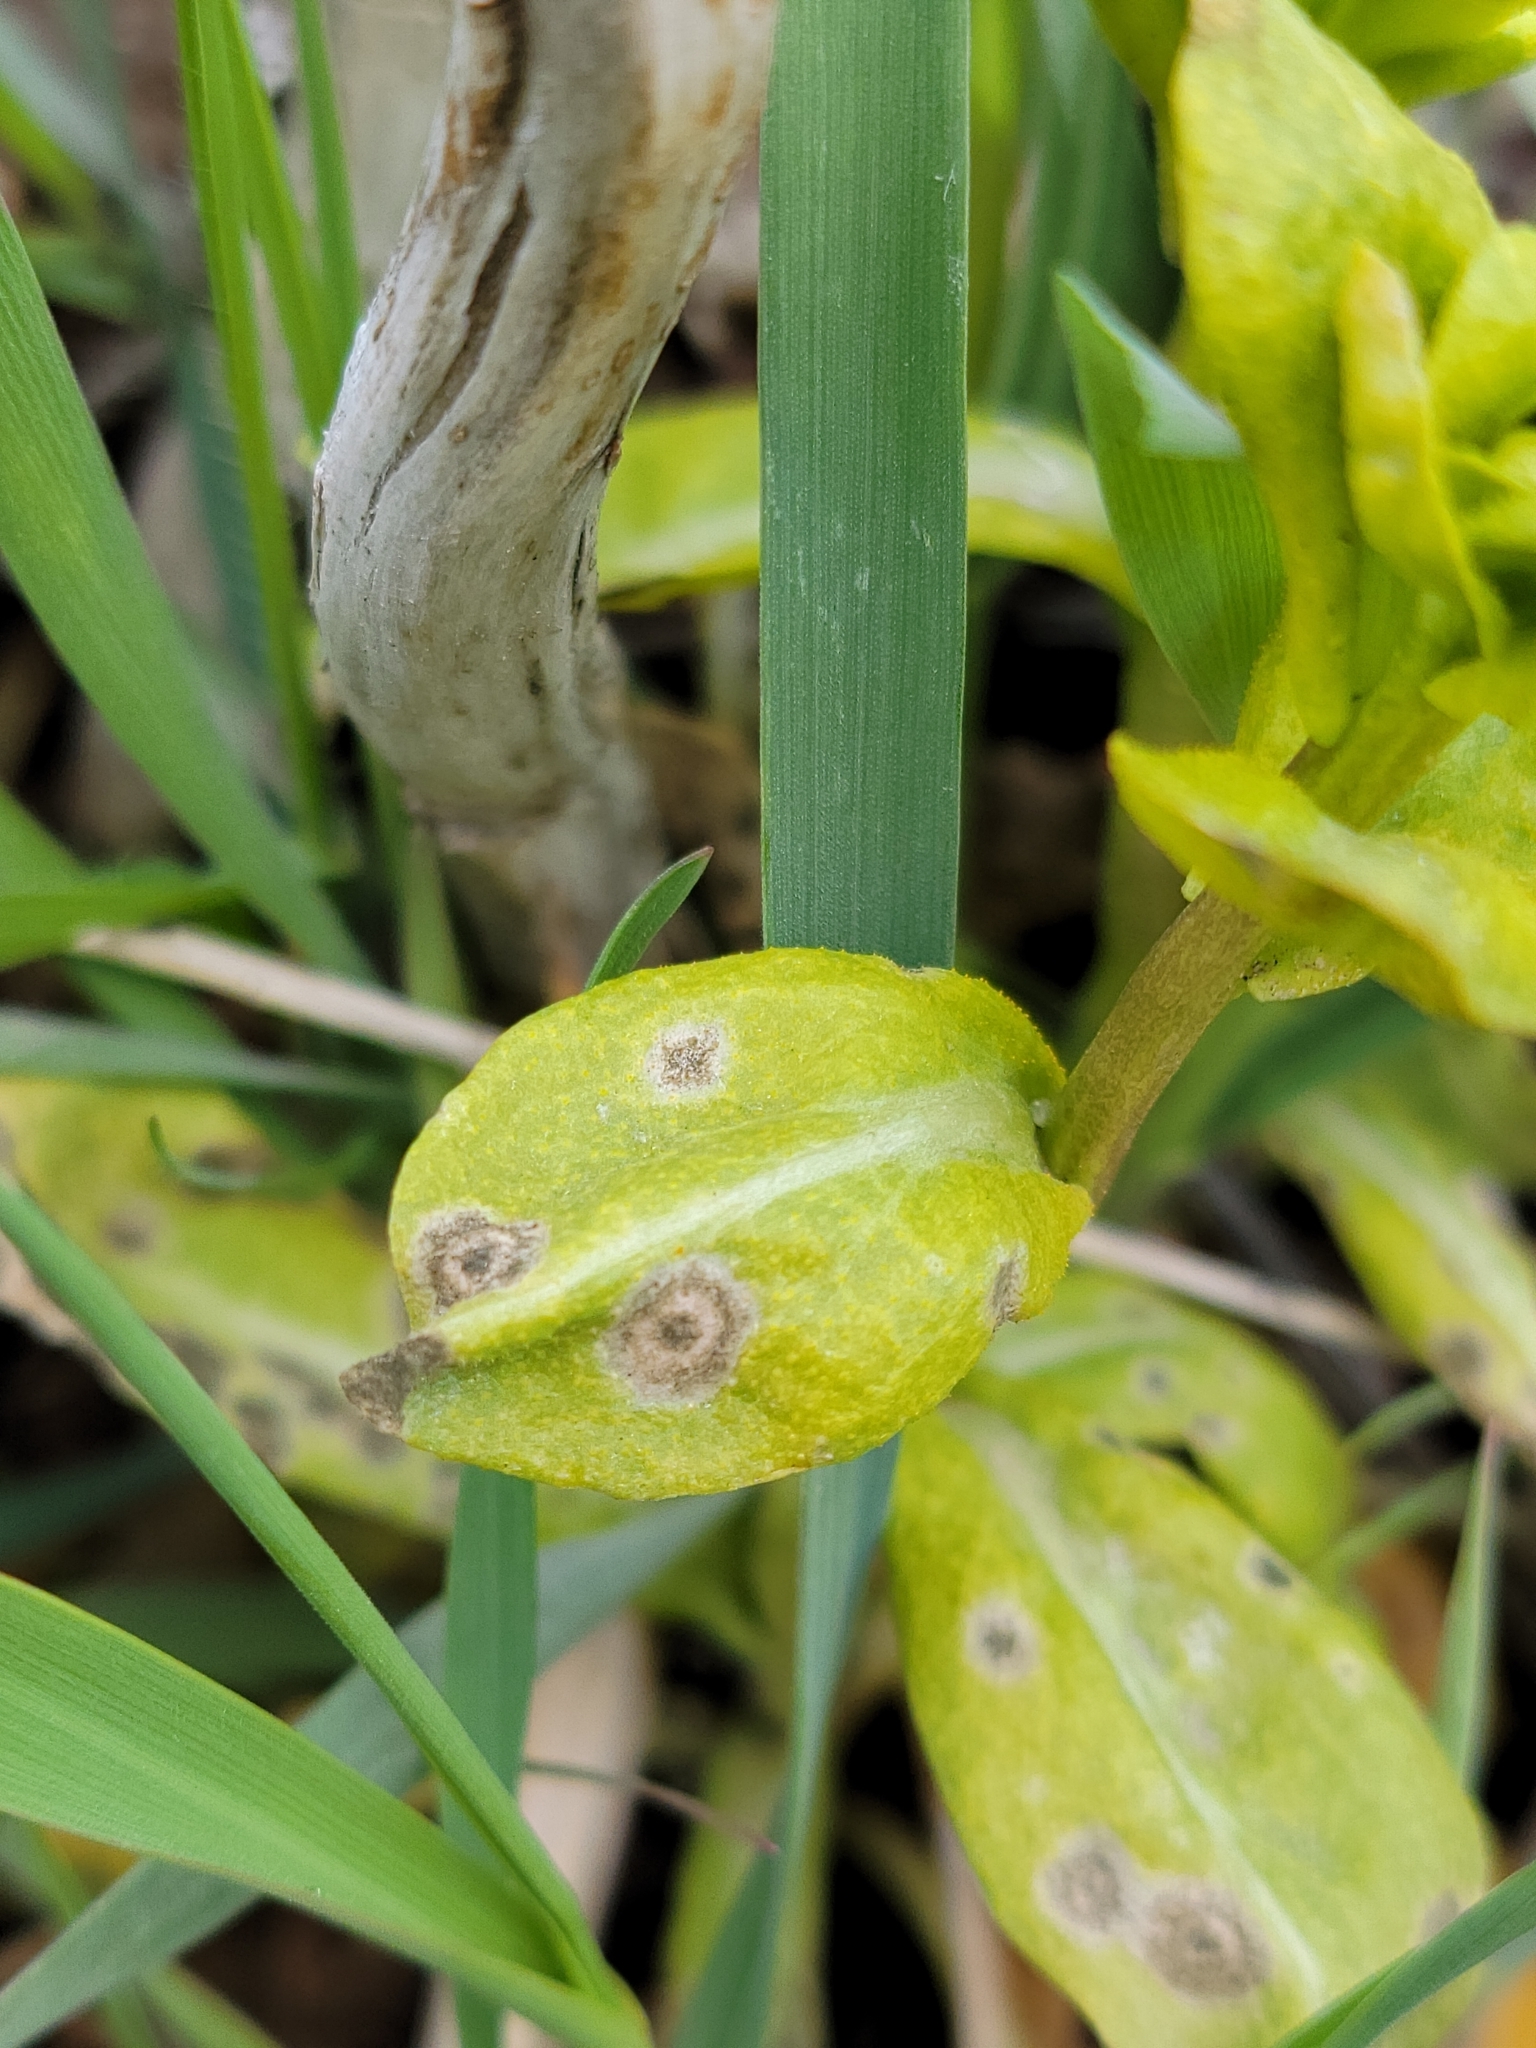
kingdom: Fungi
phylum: Basidiomycota
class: Pucciniomycetes
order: Pucciniales
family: Pucciniaceae
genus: Puccinia
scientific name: Puccinia monoica
